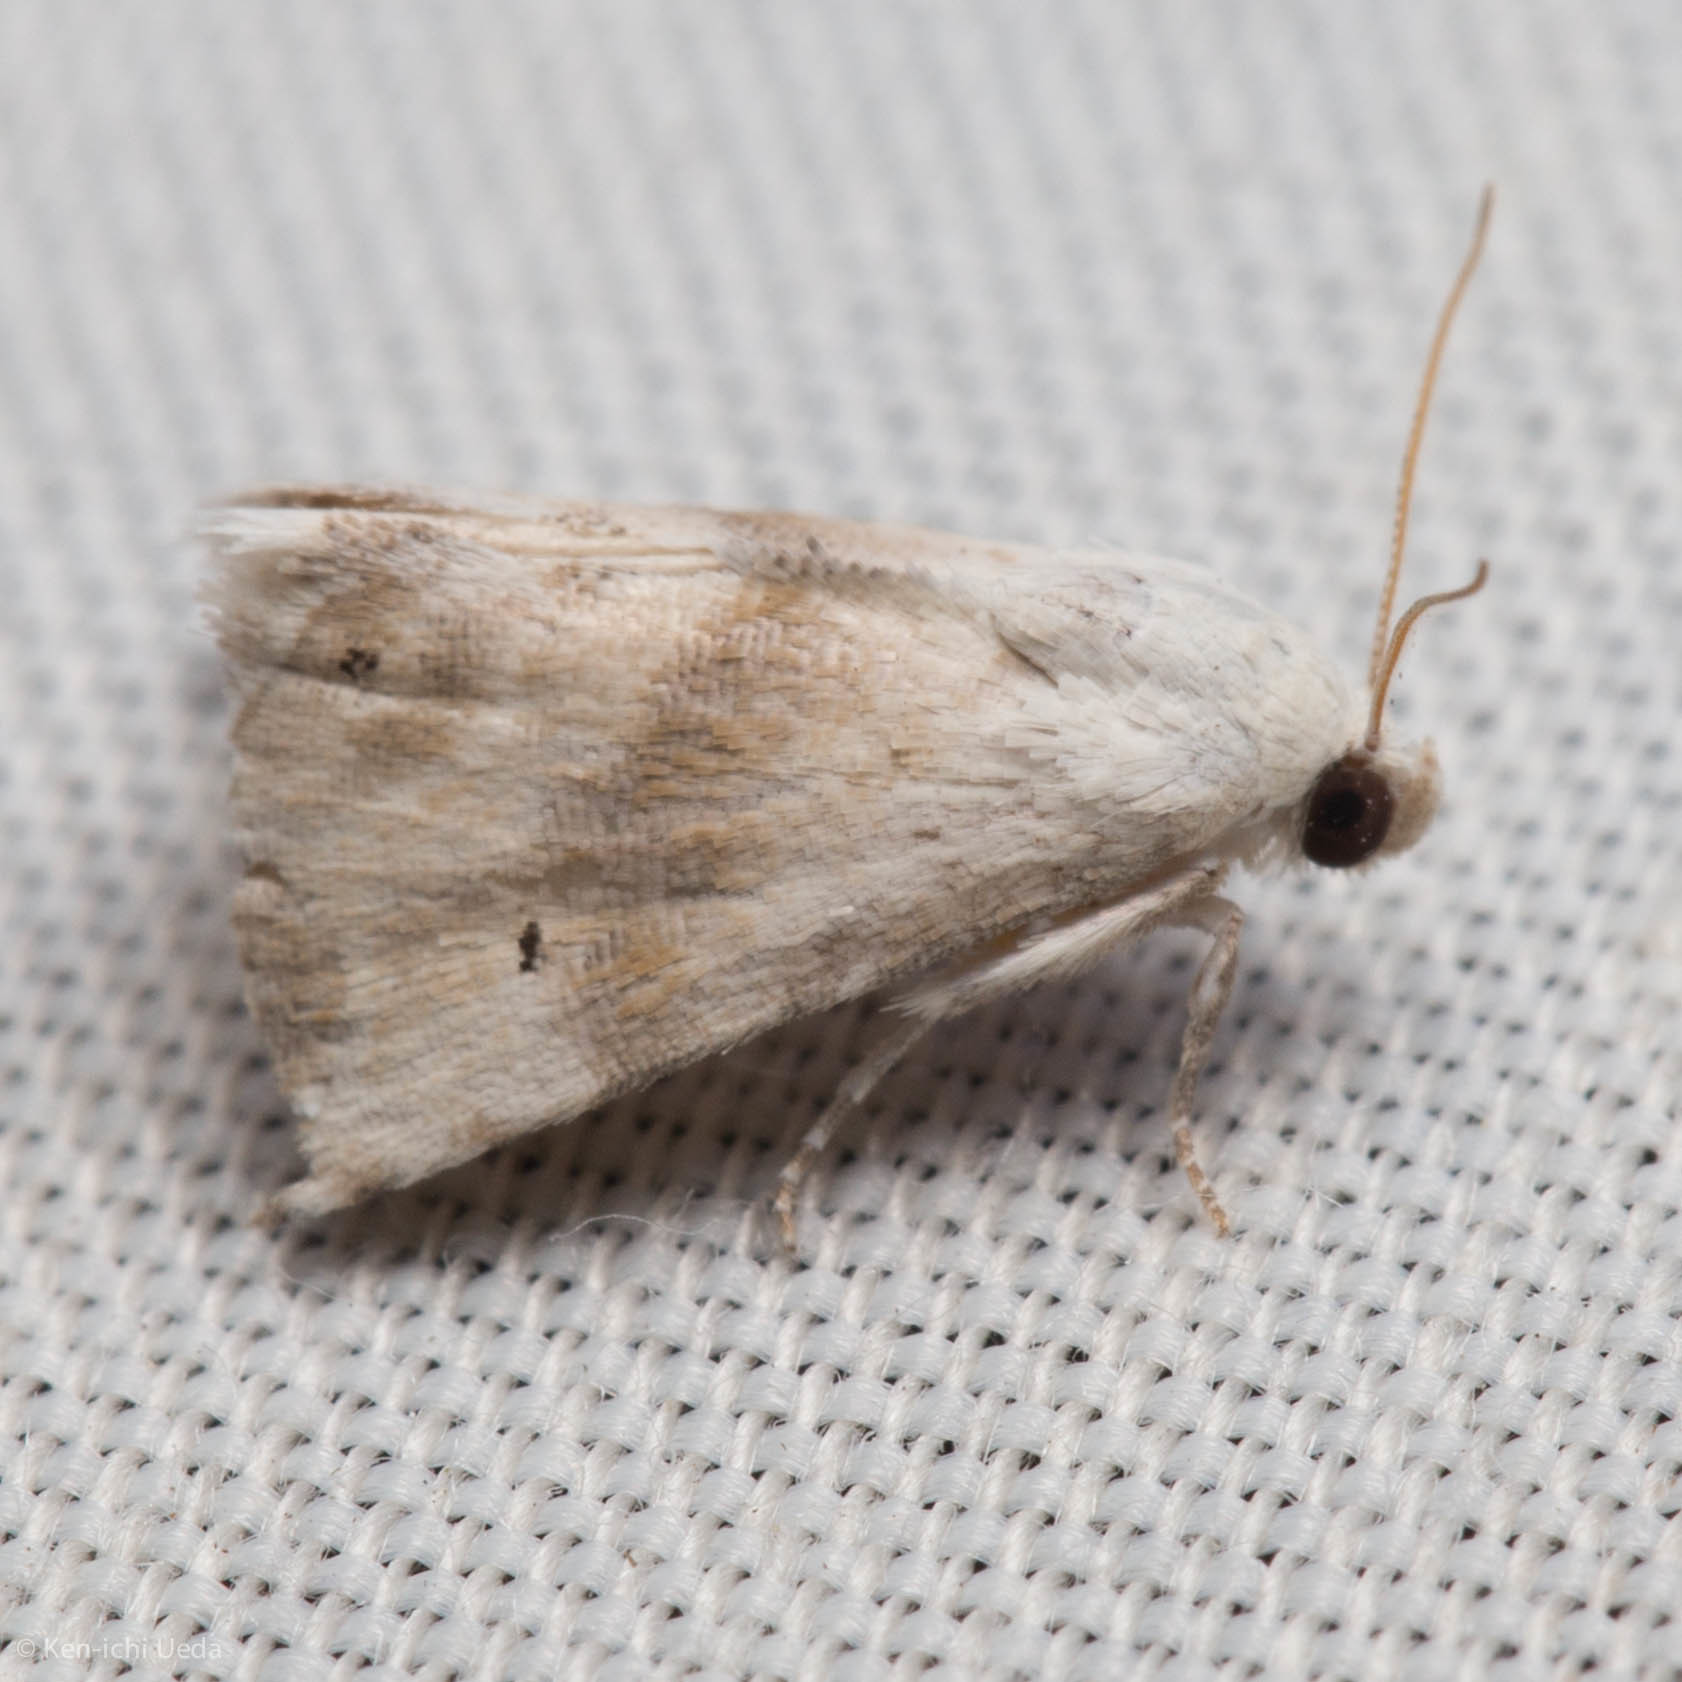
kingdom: Animalia
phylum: Arthropoda
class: Insecta
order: Lepidoptera
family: Noctuidae
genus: Eublemma
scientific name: Eublemma minima
